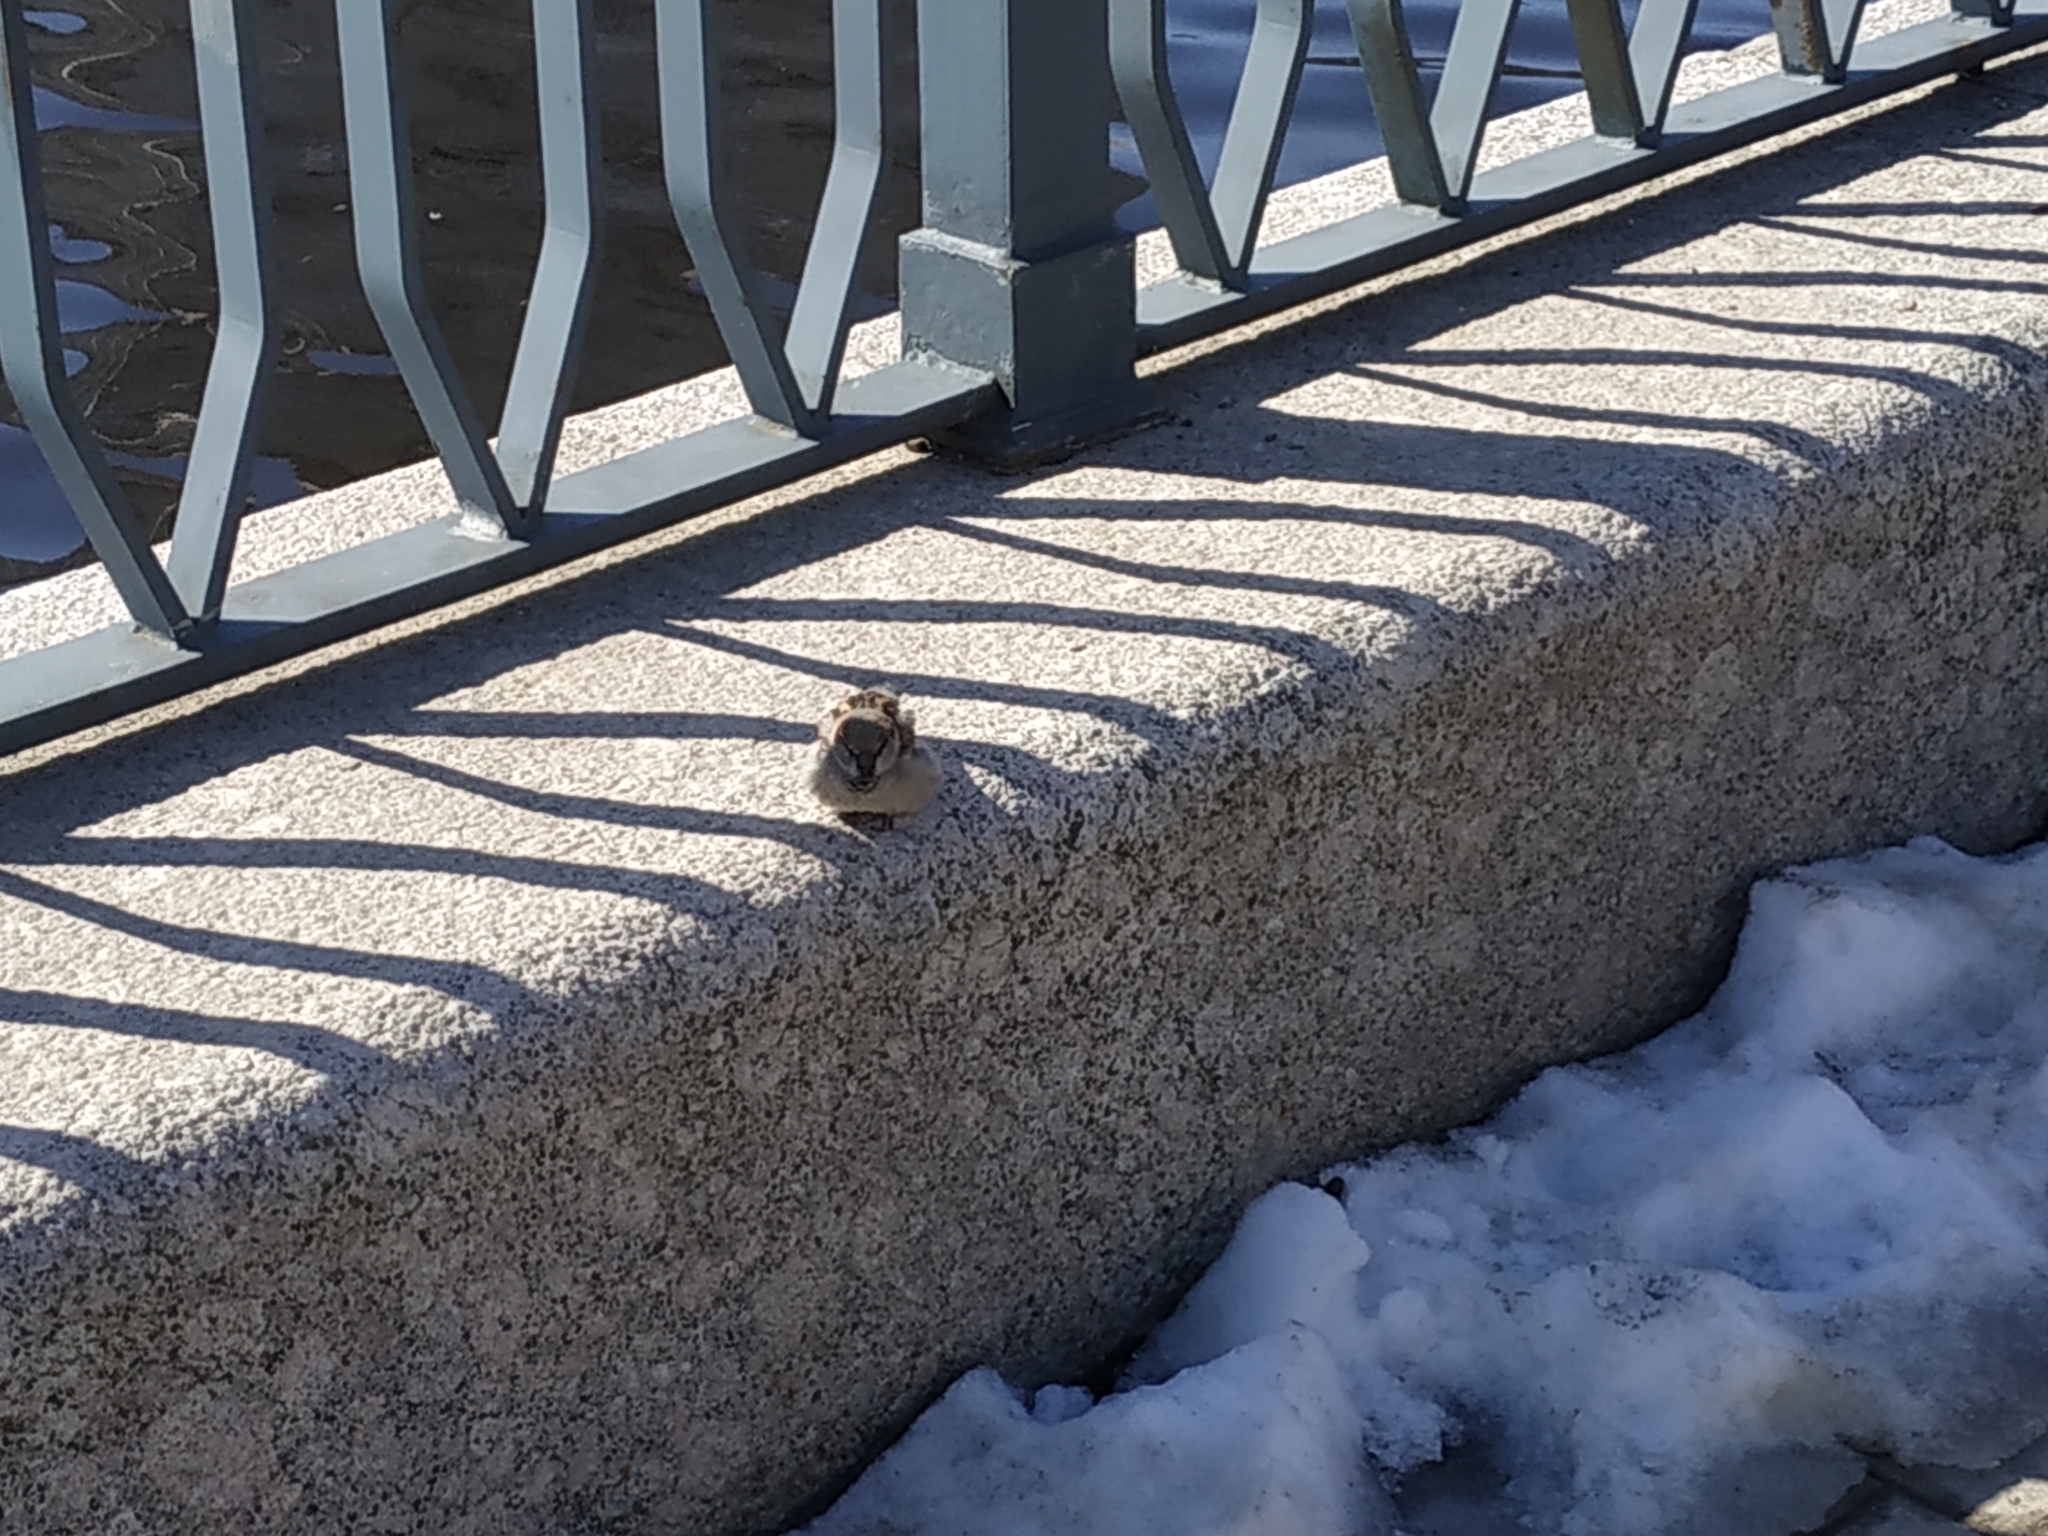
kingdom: Animalia
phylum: Chordata
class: Aves
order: Passeriformes
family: Passeridae
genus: Passer
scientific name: Passer domesticus
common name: House sparrow
